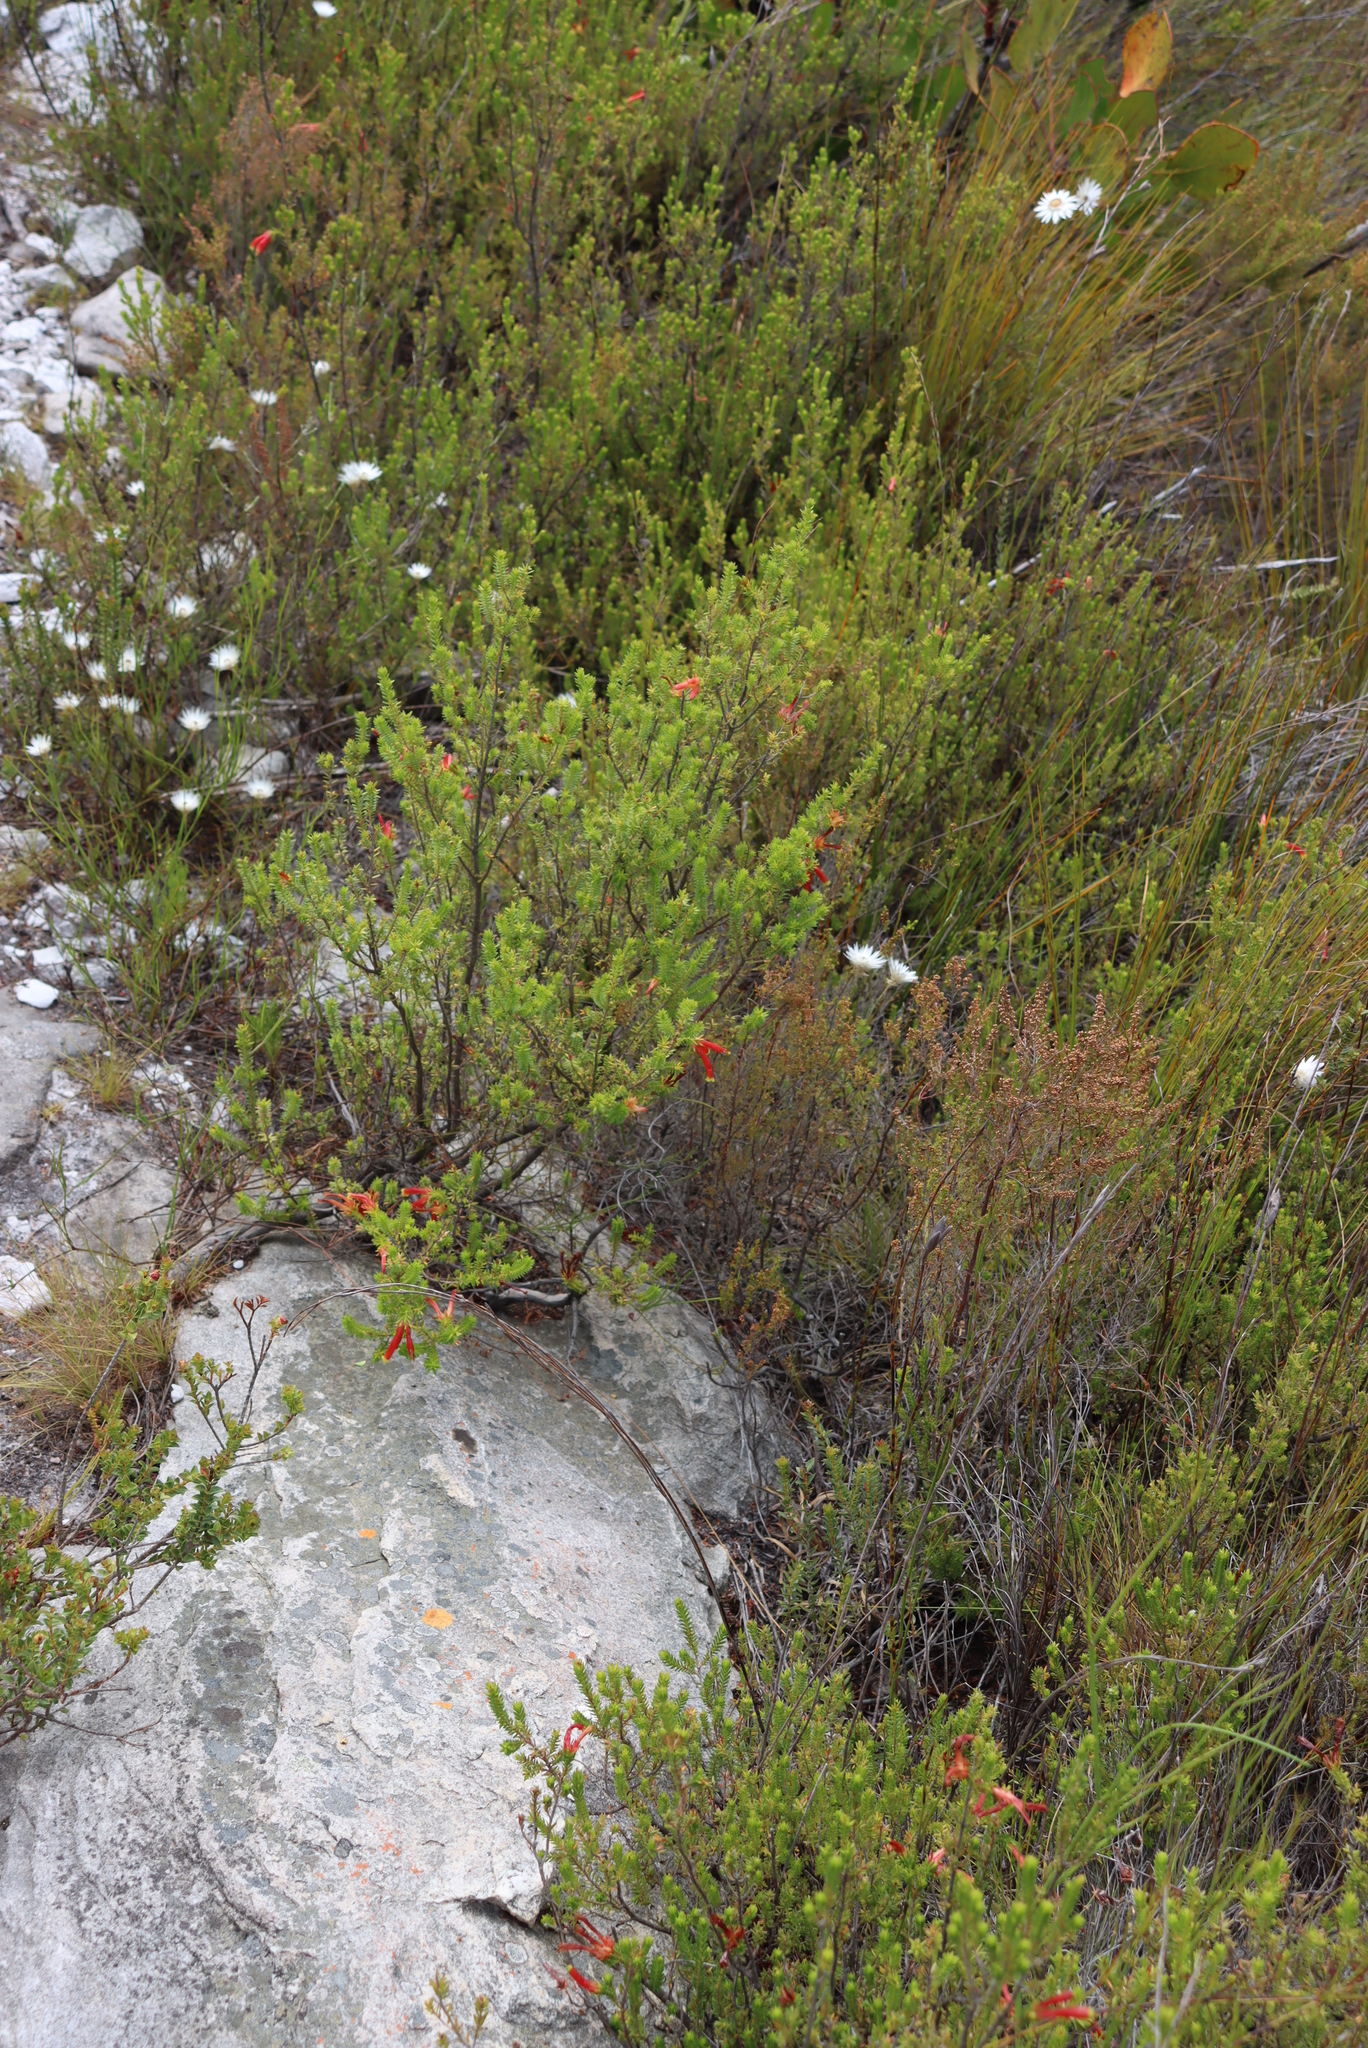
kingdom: Plantae
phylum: Tracheophyta
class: Magnoliopsida
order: Ericales
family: Ericaceae
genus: Erica
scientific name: Erica discolor
